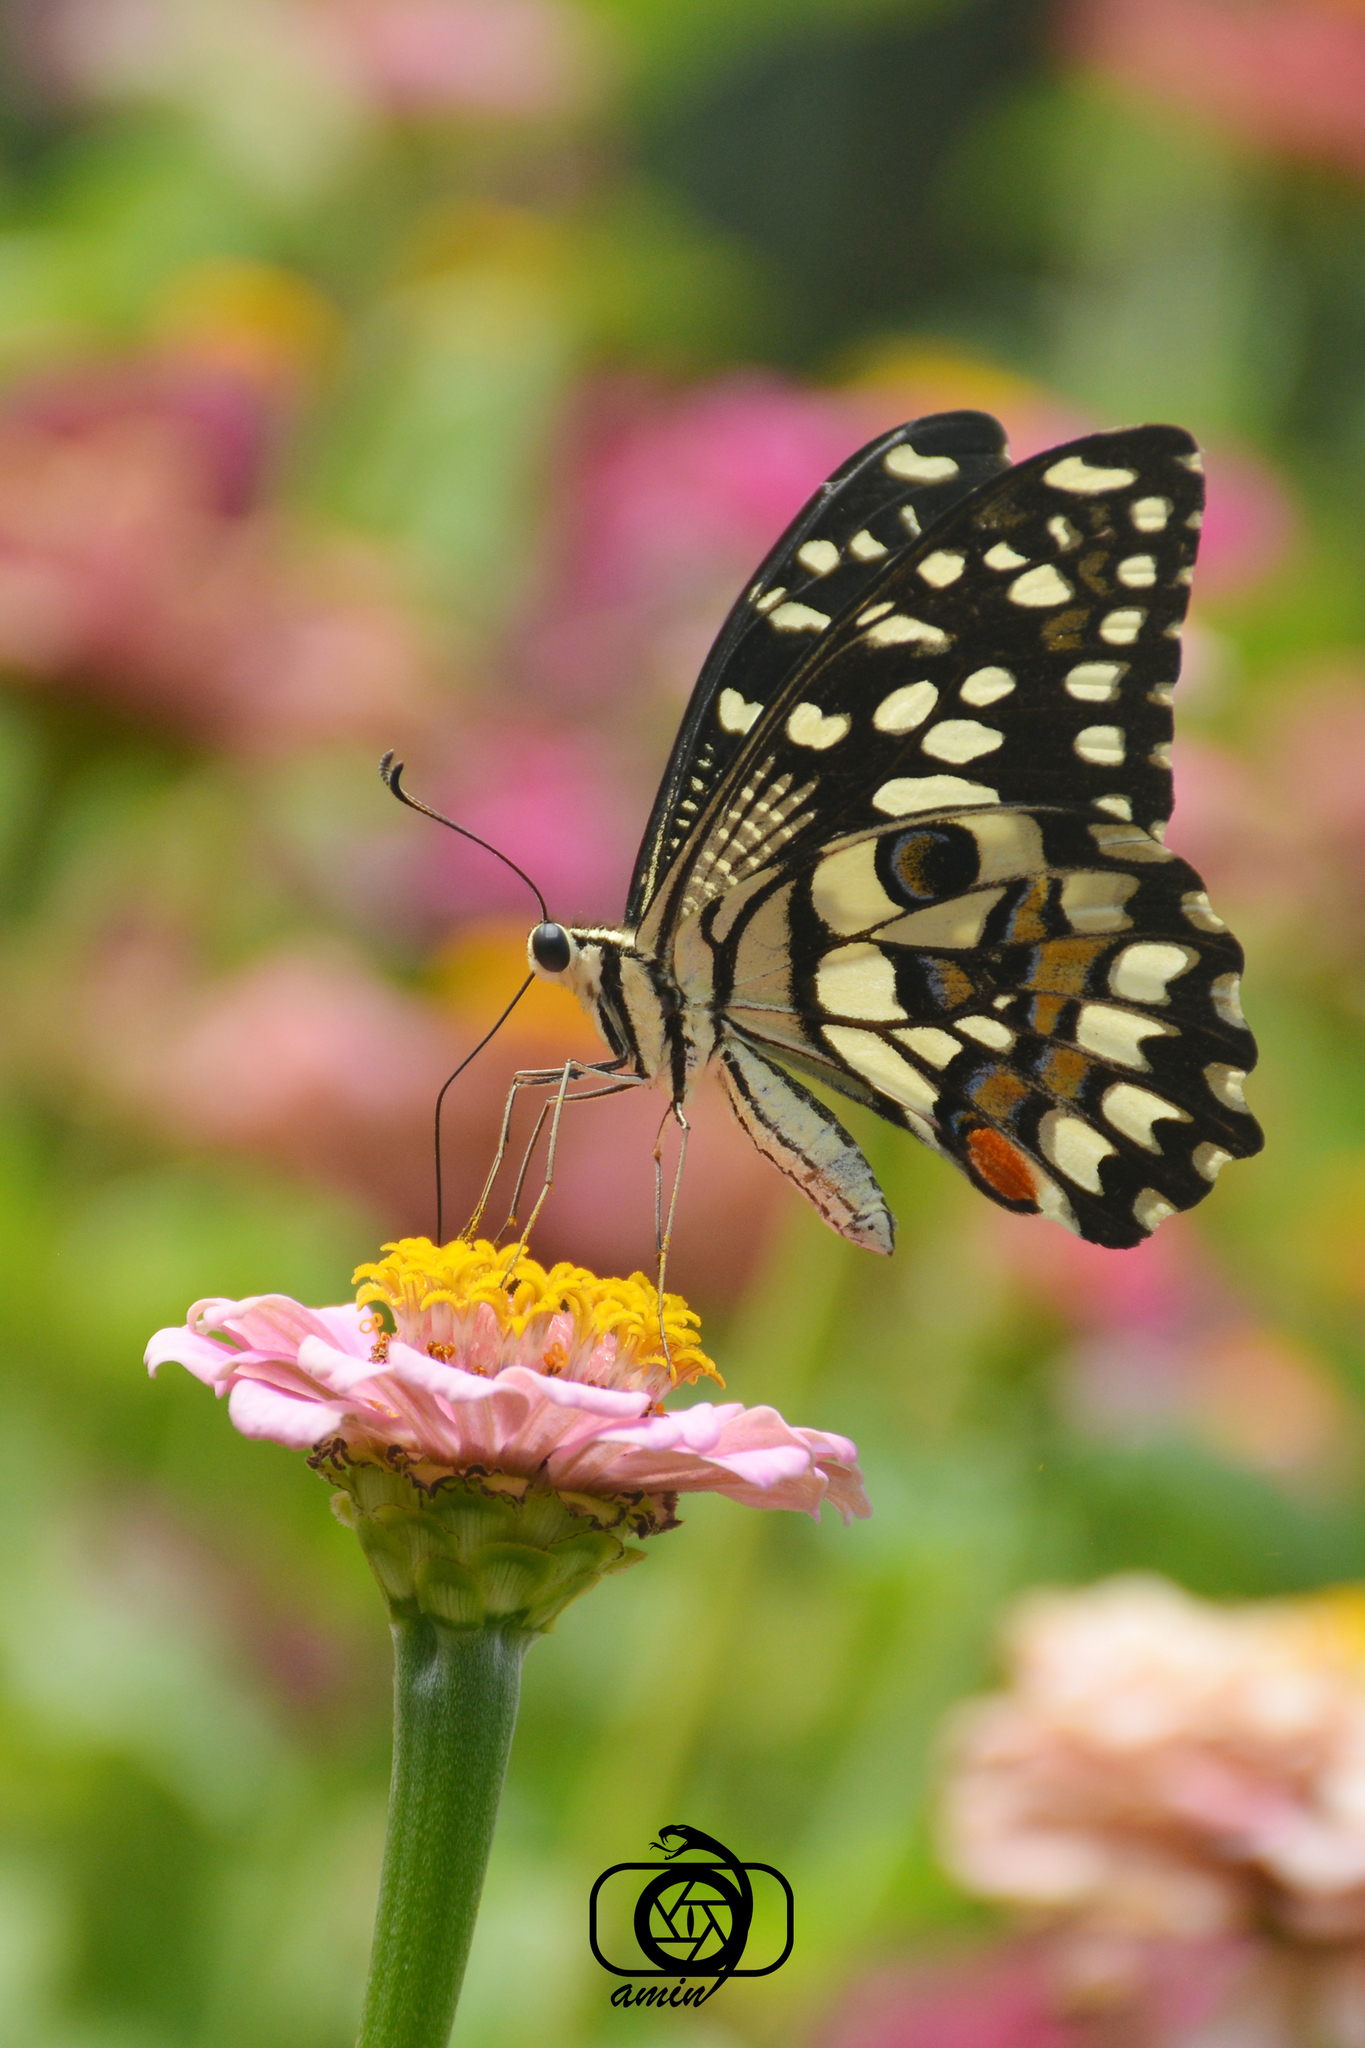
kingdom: Animalia
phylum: Arthropoda
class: Insecta
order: Lepidoptera
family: Papilionidae
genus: Papilio
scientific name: Papilio demoleus
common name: Lime butterfly
